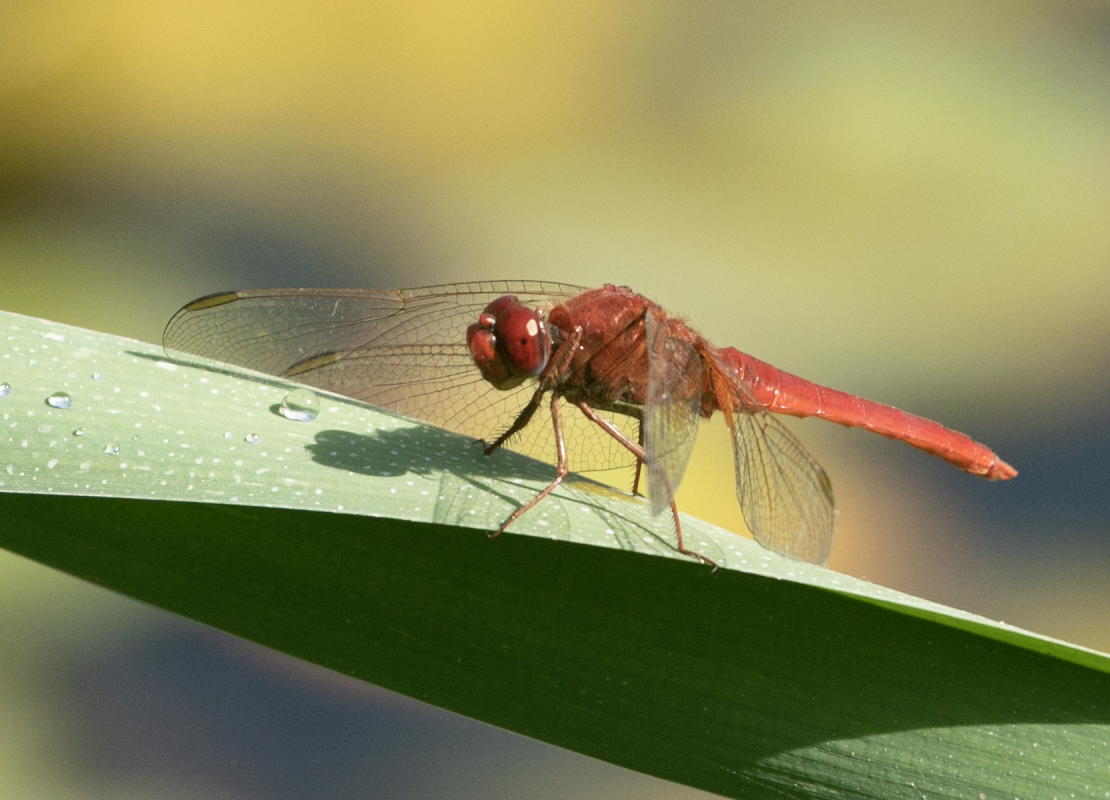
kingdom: Animalia
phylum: Arthropoda
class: Insecta
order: Odonata
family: Libellulidae
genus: Crocothemis
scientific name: Crocothemis erythraea
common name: Scarlet dragonfly
